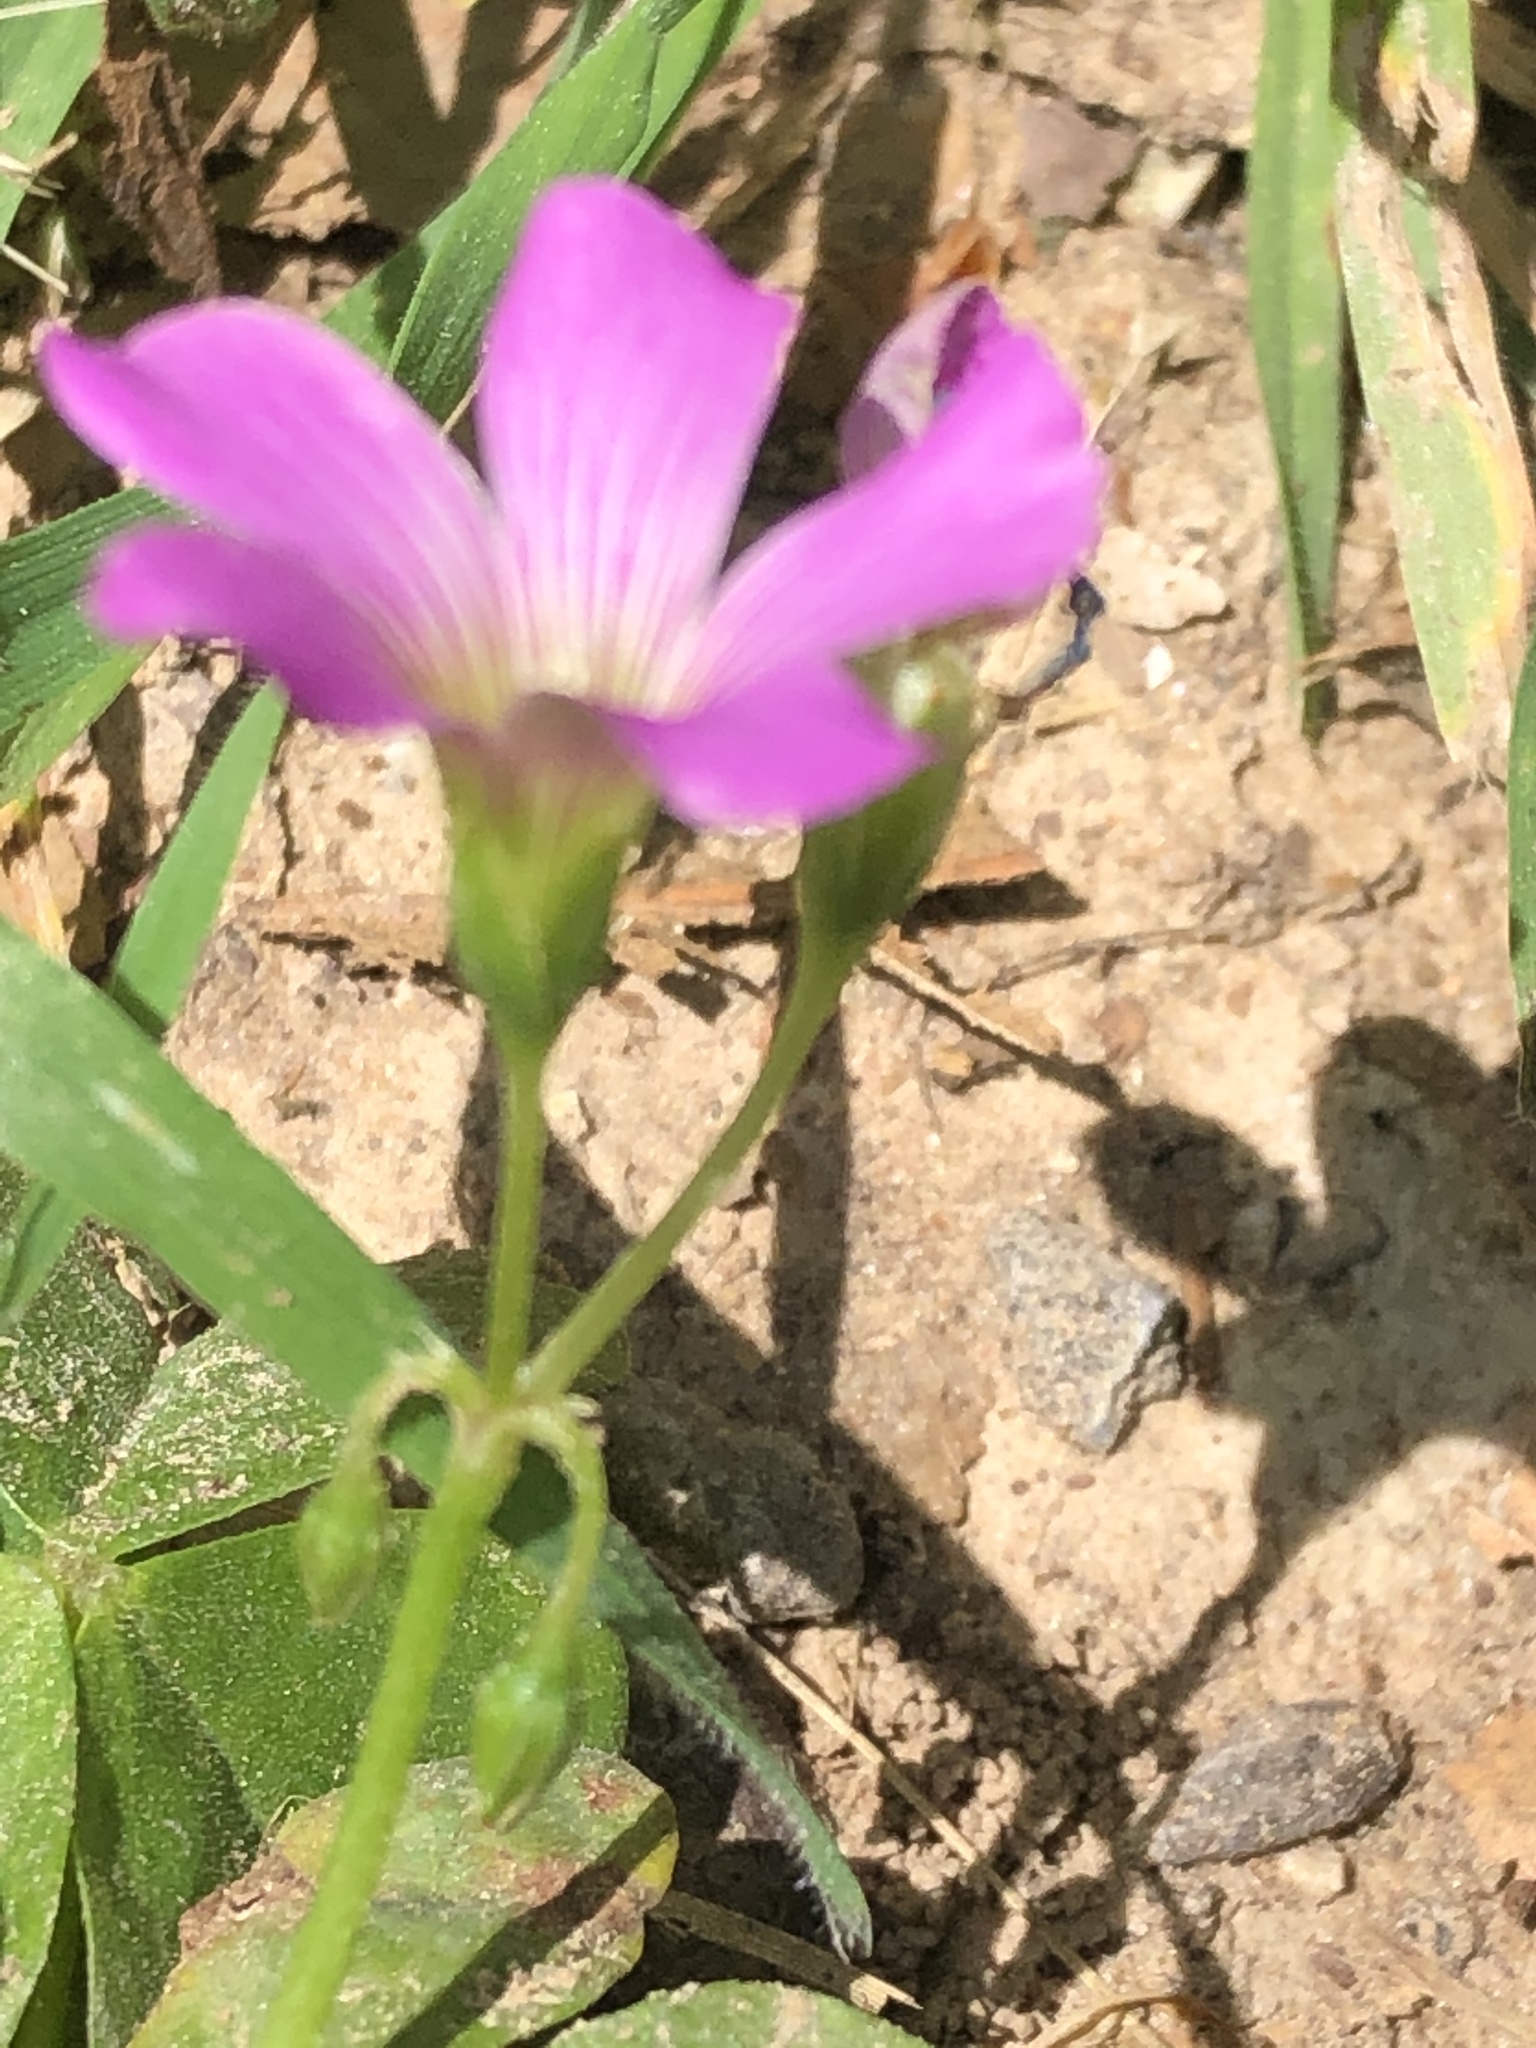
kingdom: Plantae
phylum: Tracheophyta
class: Magnoliopsida
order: Oxalidales
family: Oxalidaceae
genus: Oxalis
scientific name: Oxalis debilis
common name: Large-flowered pink-sorrel
